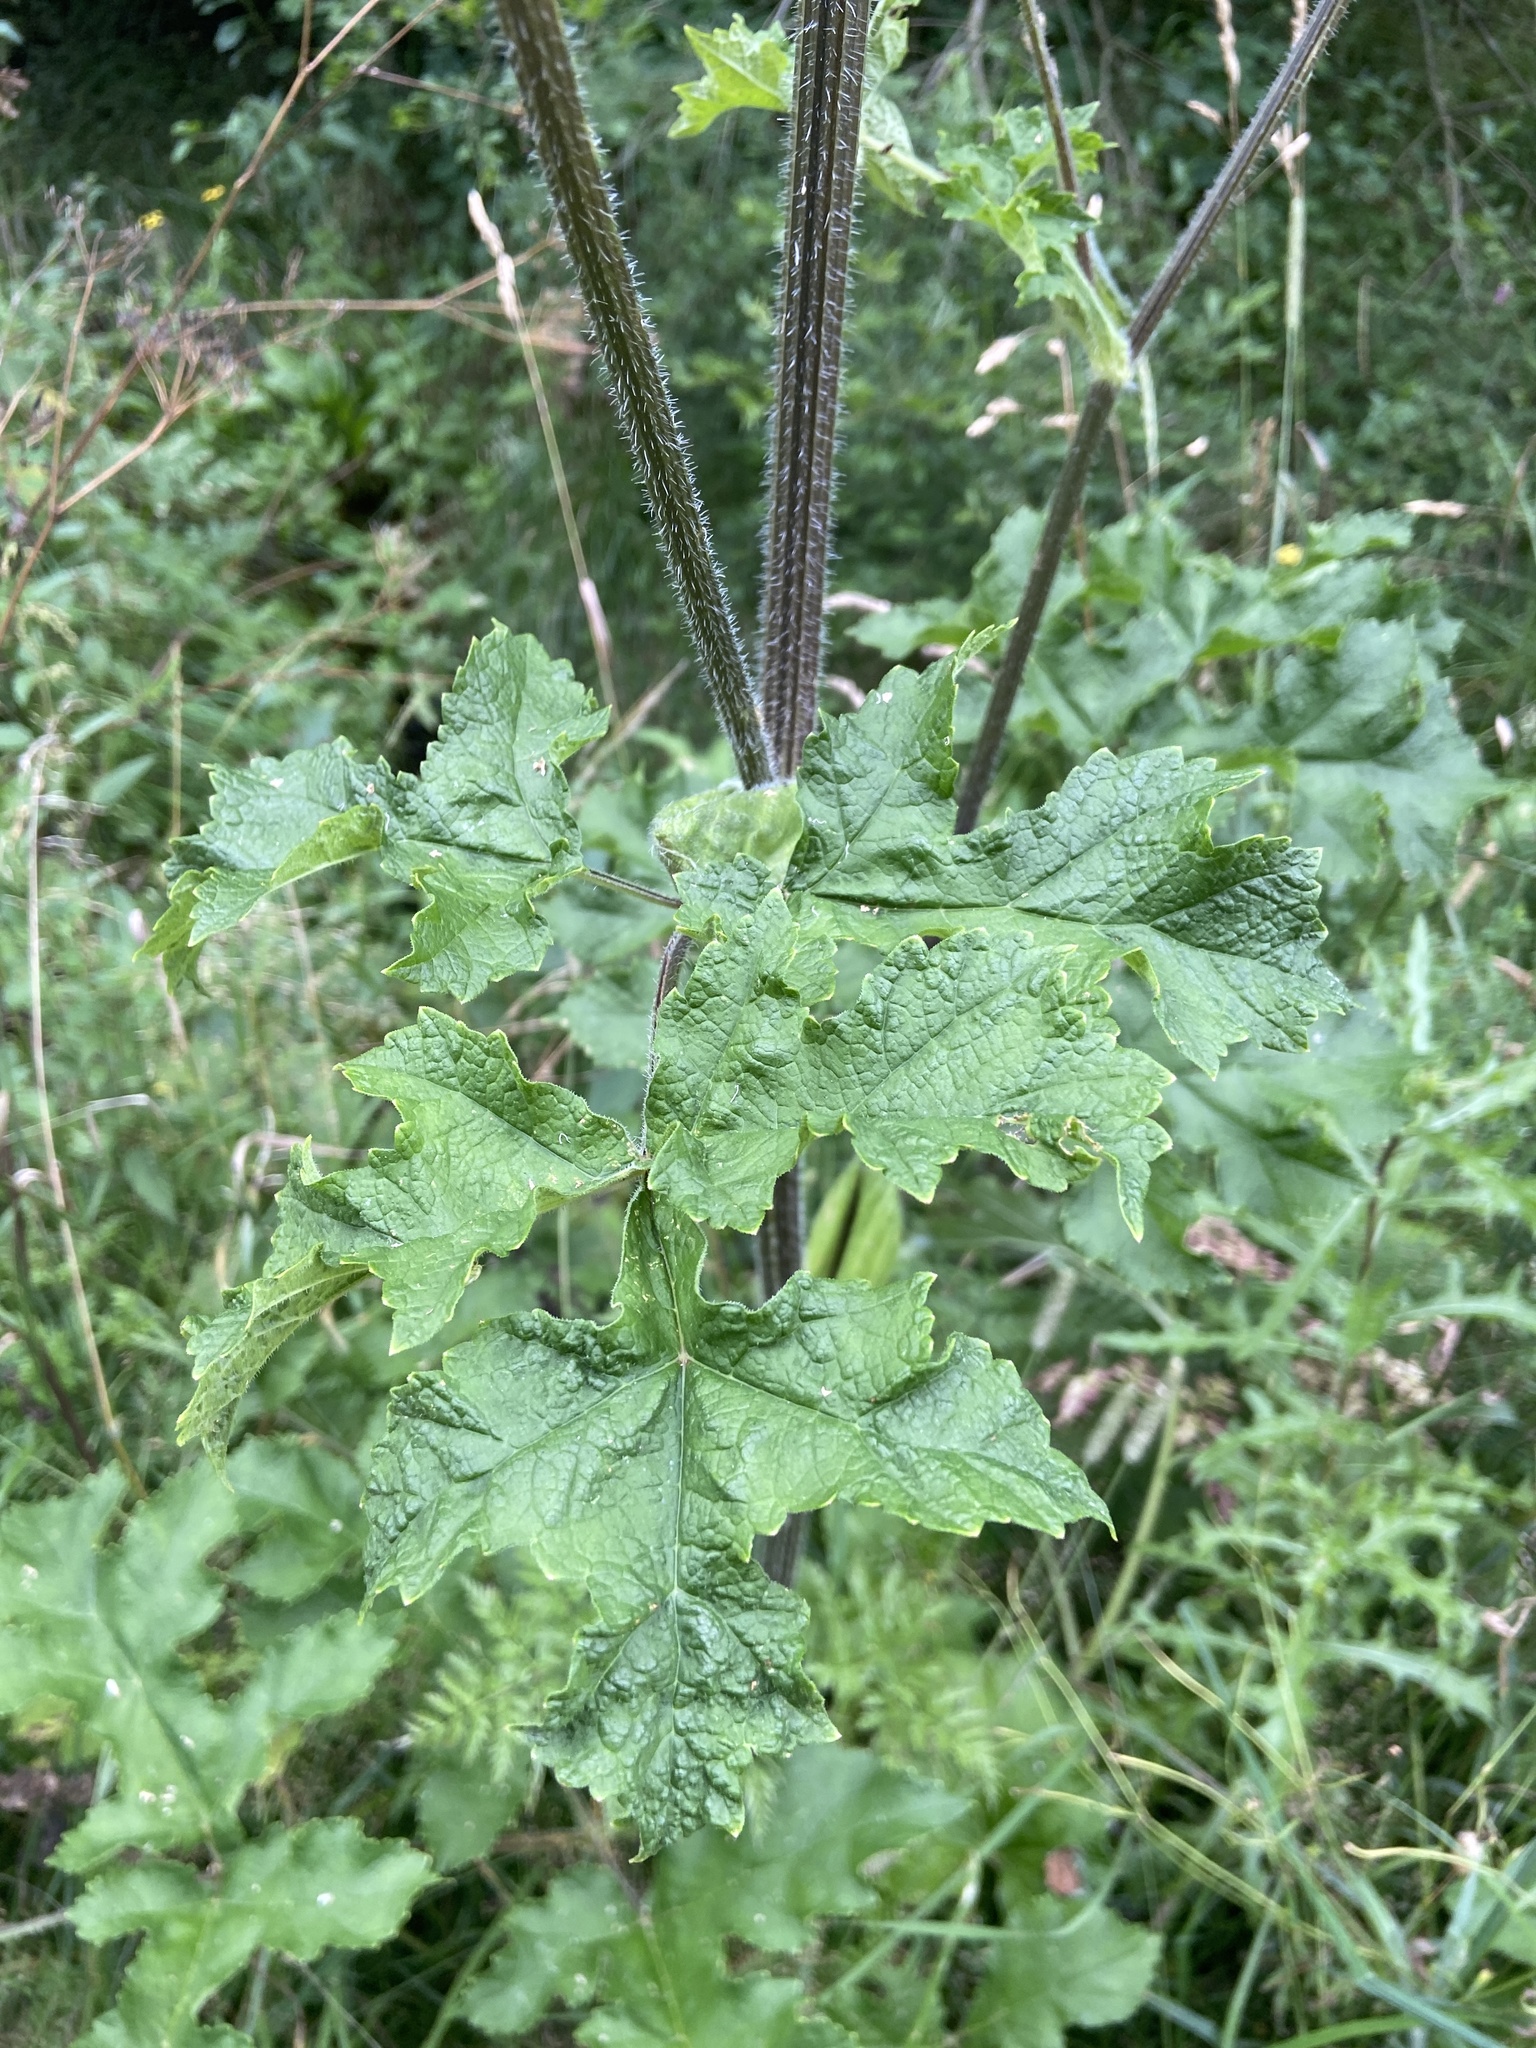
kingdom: Plantae
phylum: Tracheophyta
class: Magnoliopsida
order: Apiales
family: Apiaceae
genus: Heracleum
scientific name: Heracleum sphondylium
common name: Hogweed
